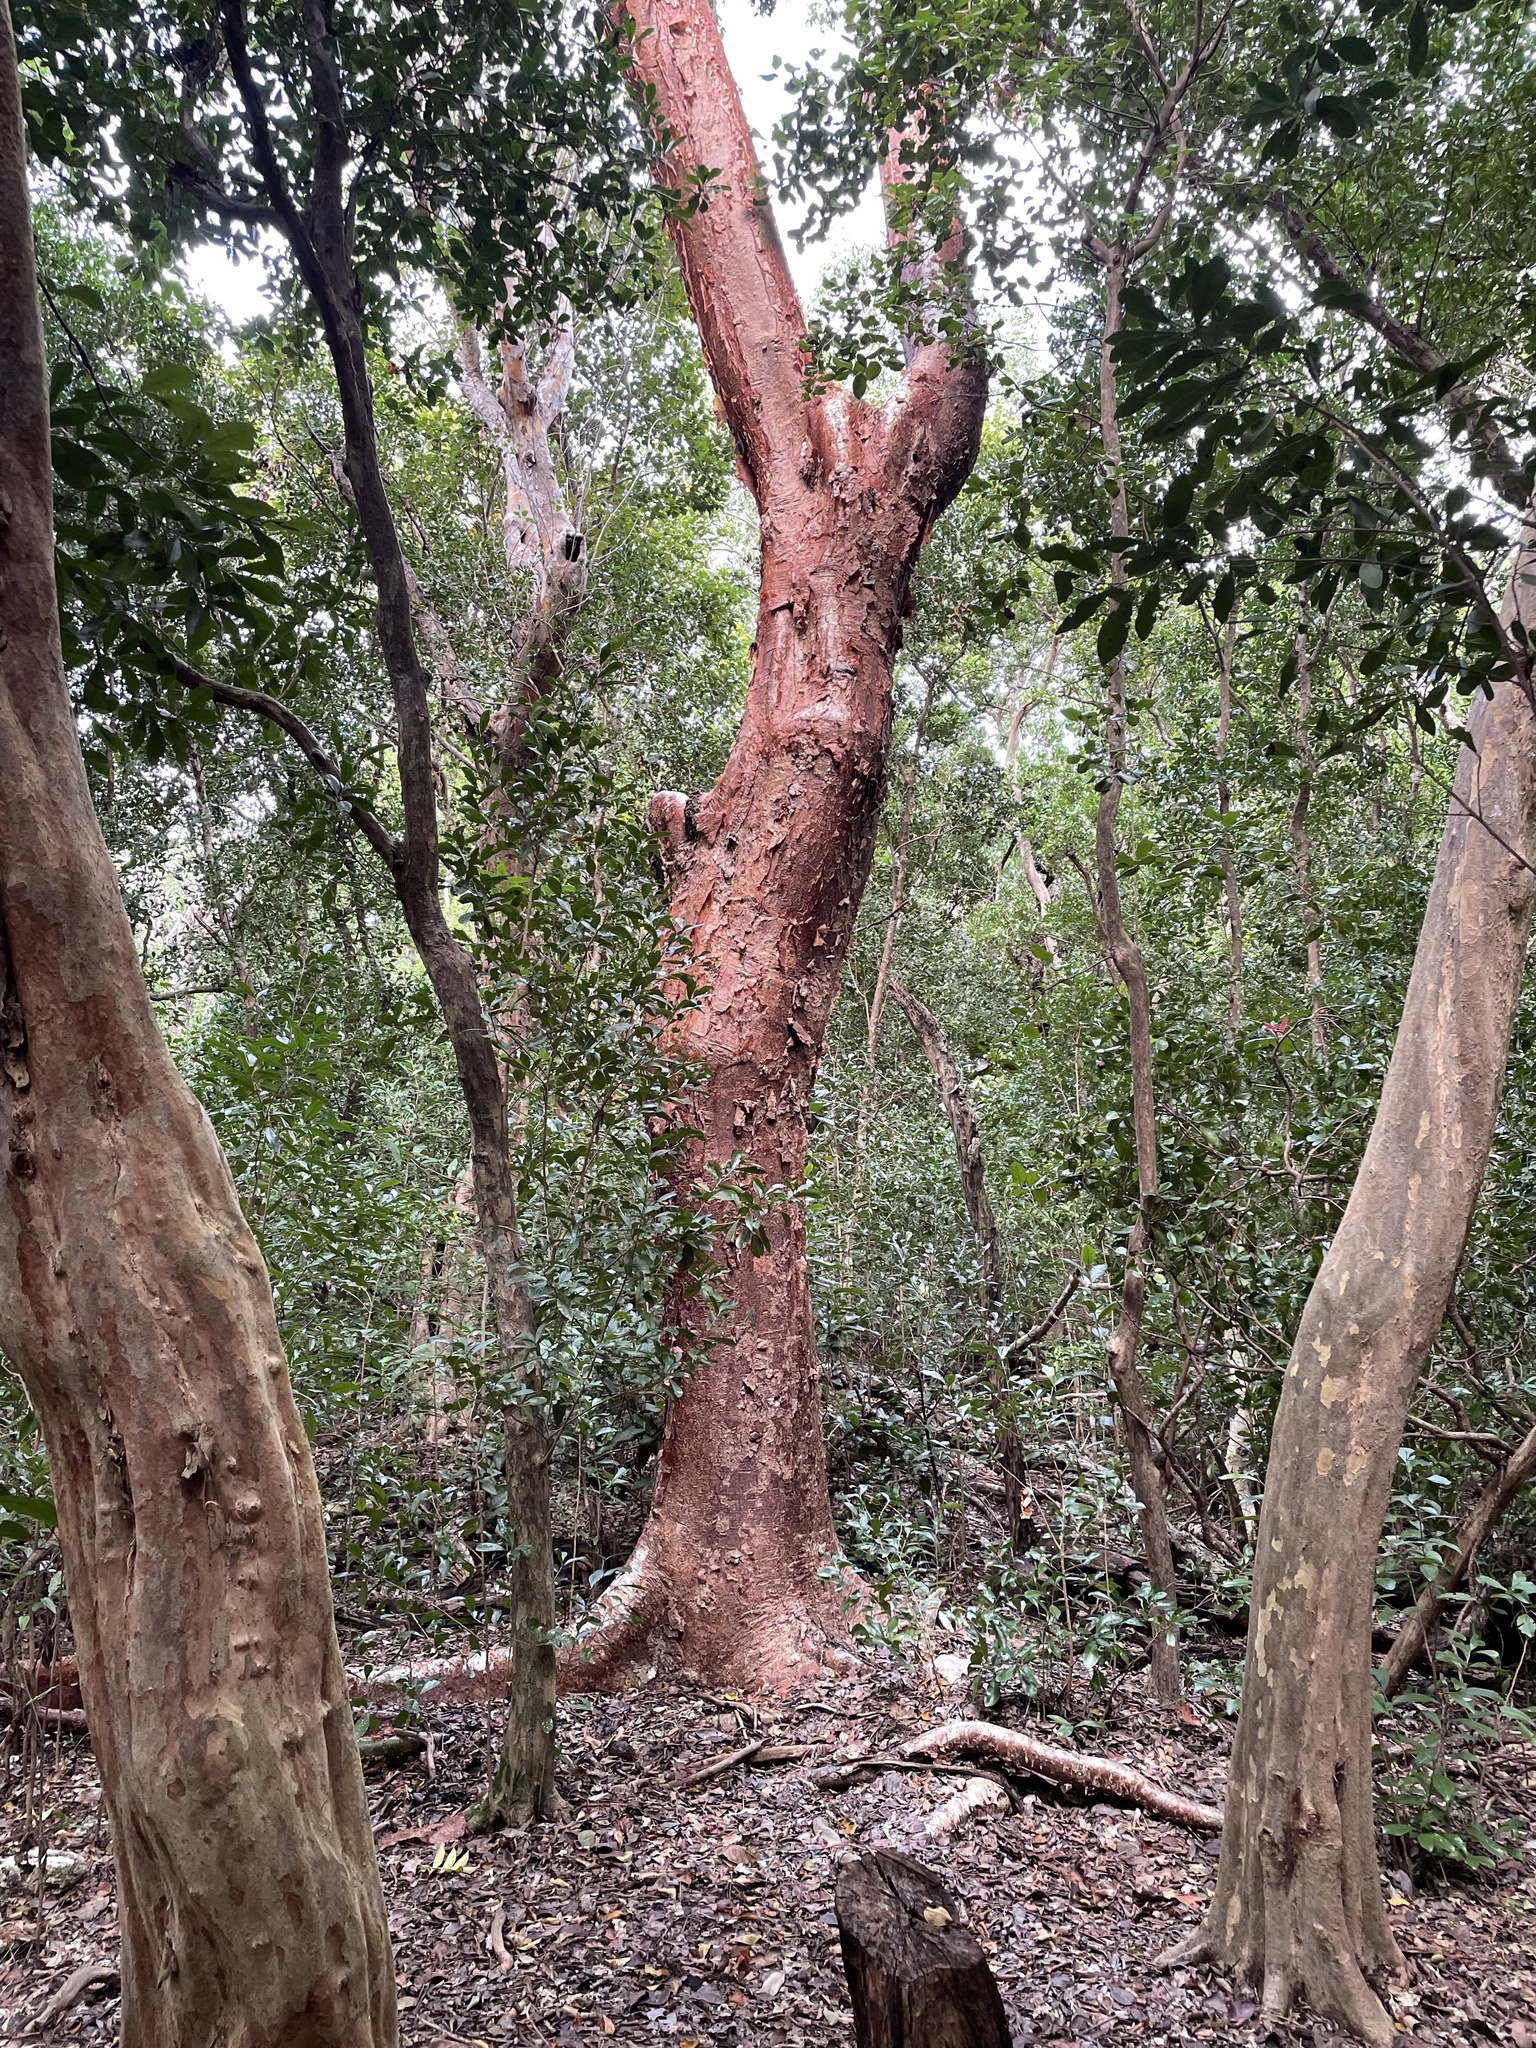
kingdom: Plantae
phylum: Tracheophyta
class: Magnoliopsida
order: Sapindales
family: Burseraceae
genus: Bursera
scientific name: Bursera simaruba
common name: Turpentine tree
